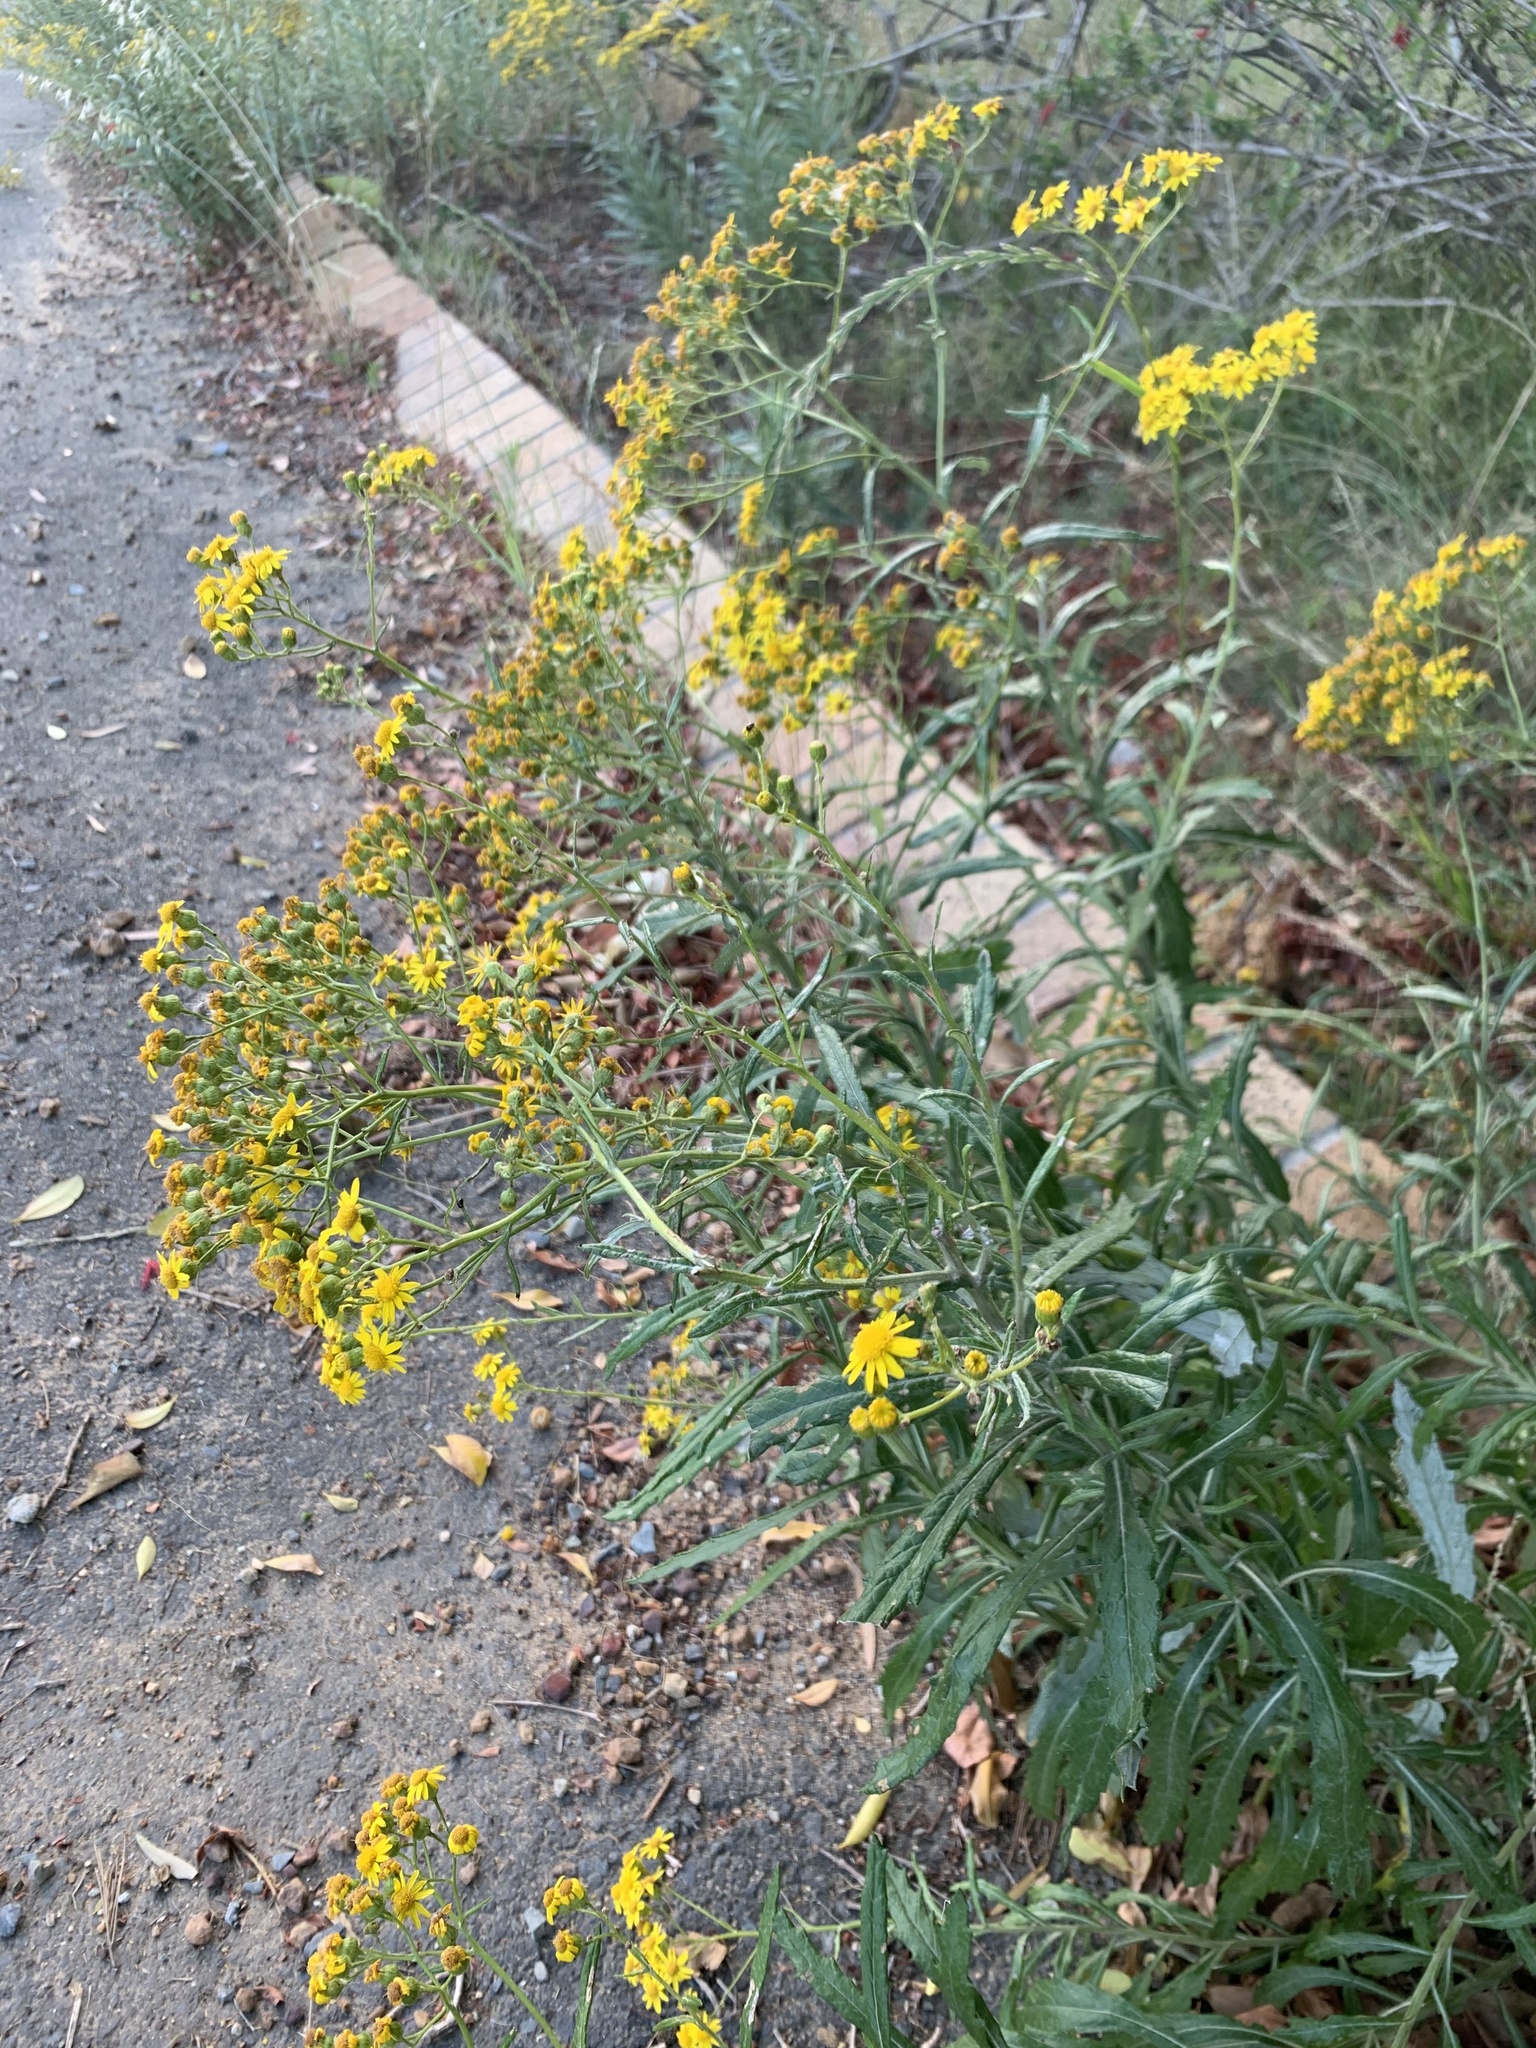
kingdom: Plantae
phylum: Tracheophyta
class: Magnoliopsida
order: Asterales
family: Asteraceae
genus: Senecio
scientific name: Senecio pterophorus
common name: Shoddy ragwort
